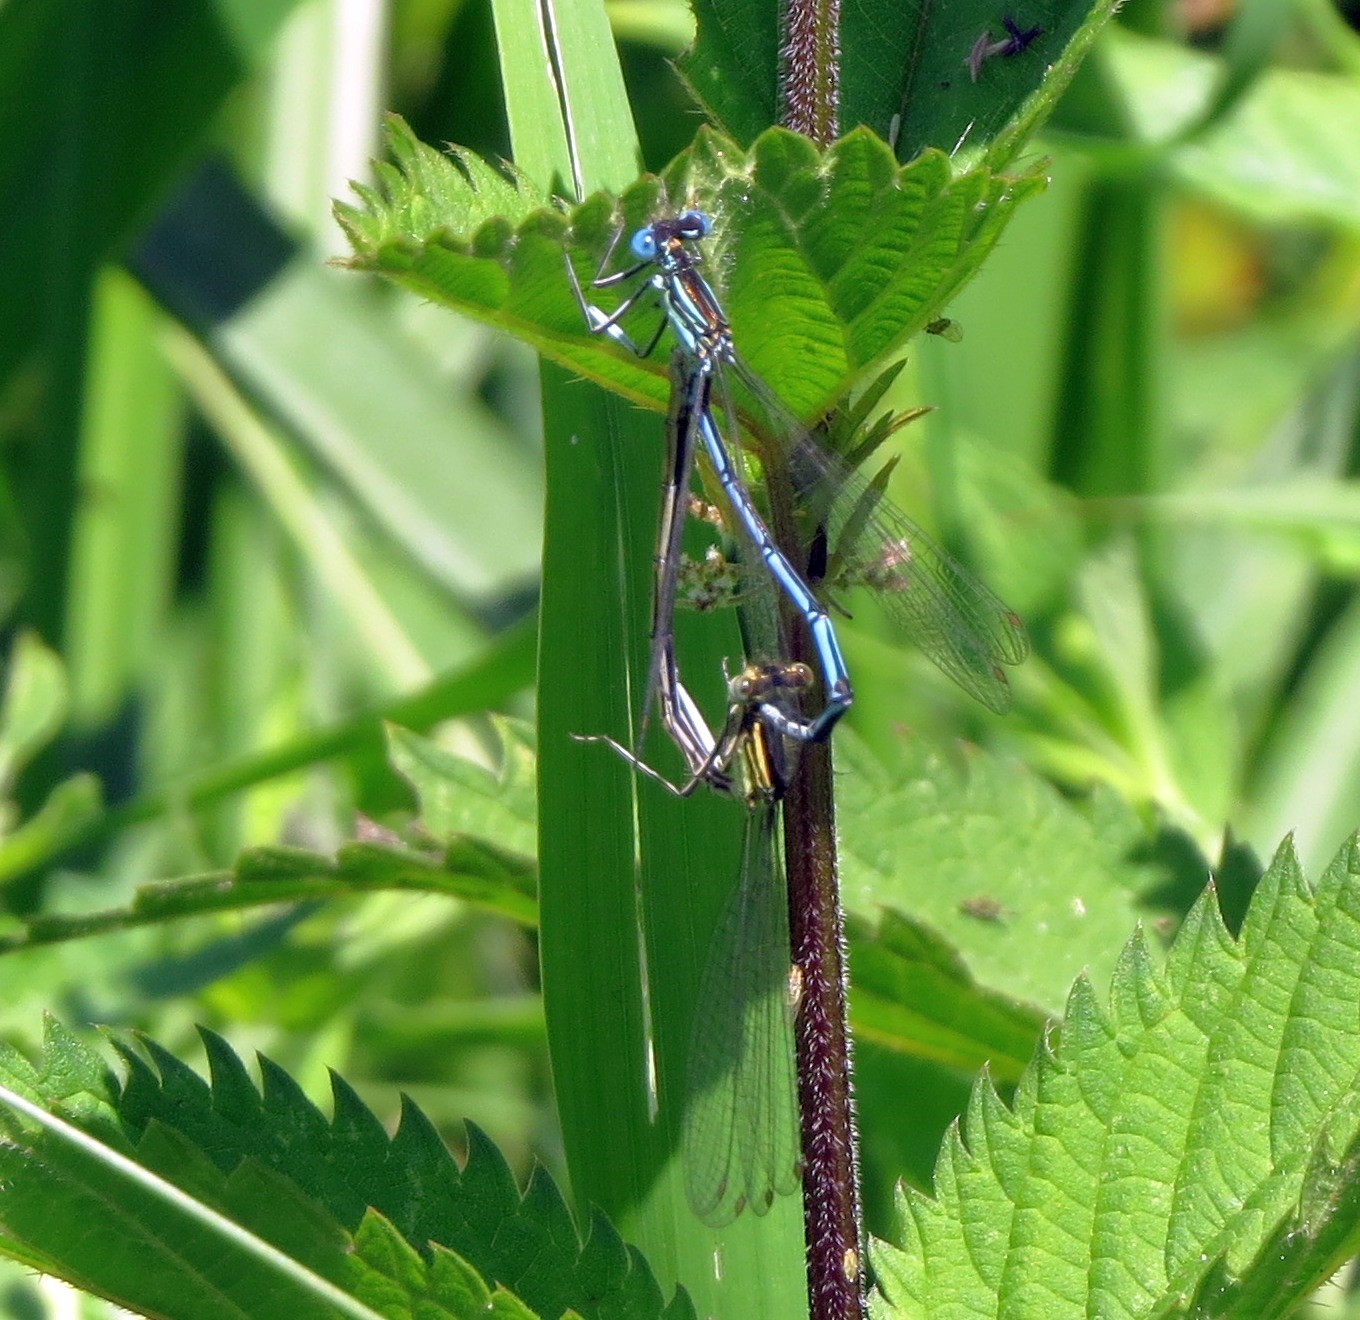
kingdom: Animalia
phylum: Arthropoda
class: Insecta
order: Odonata
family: Platycnemididae
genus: Platycnemis
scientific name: Platycnemis pennipes
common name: White-legged damselfly
